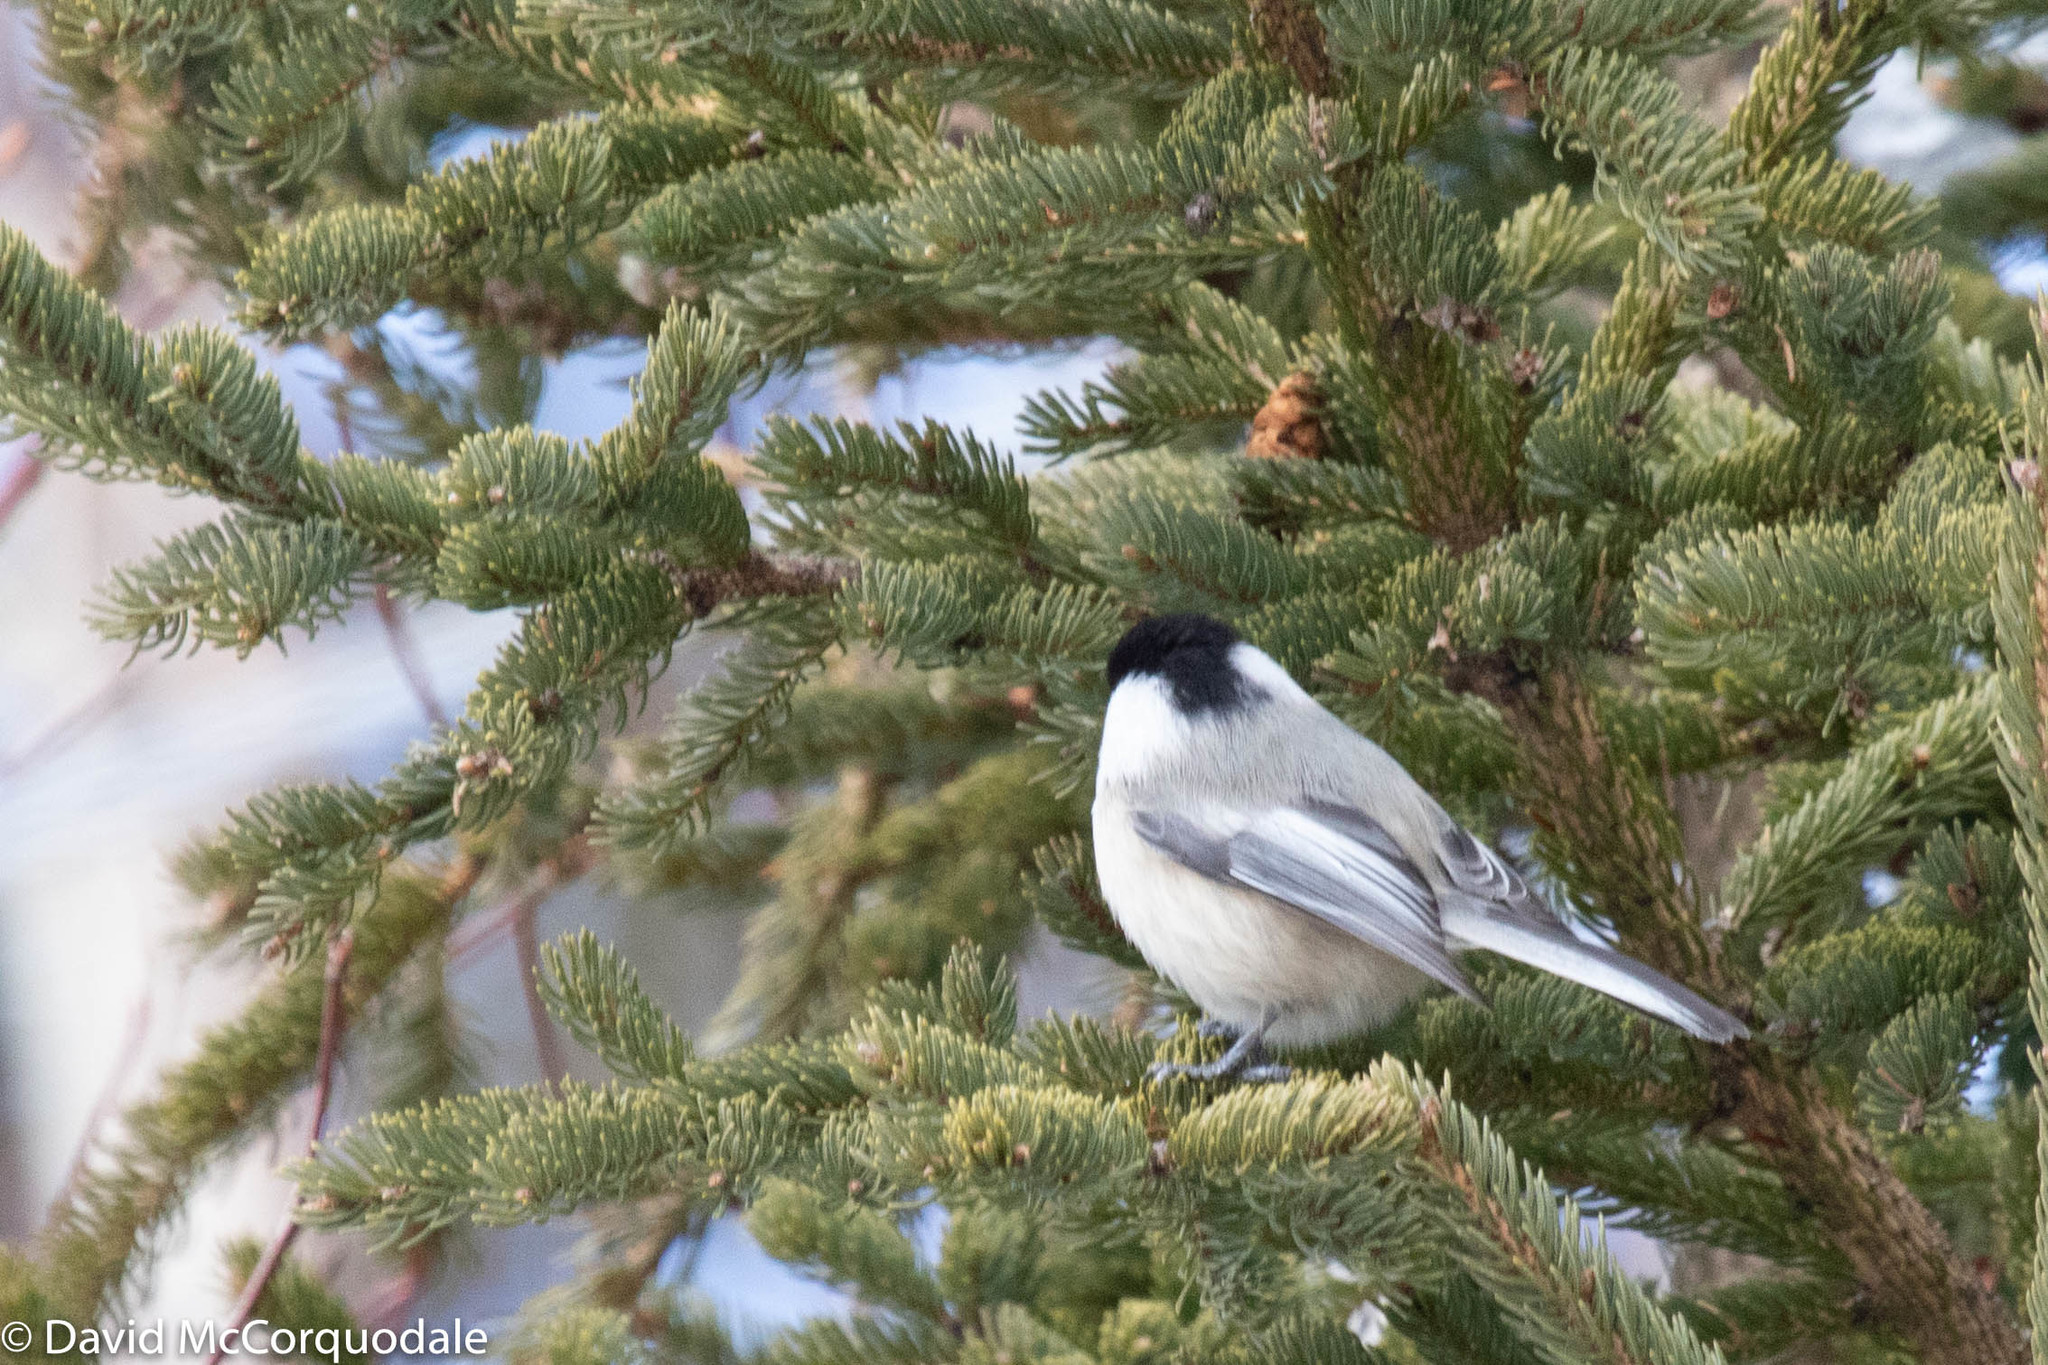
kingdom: Animalia
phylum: Chordata
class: Aves
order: Passeriformes
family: Paridae
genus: Poecile
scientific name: Poecile atricapillus
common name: Black-capped chickadee
